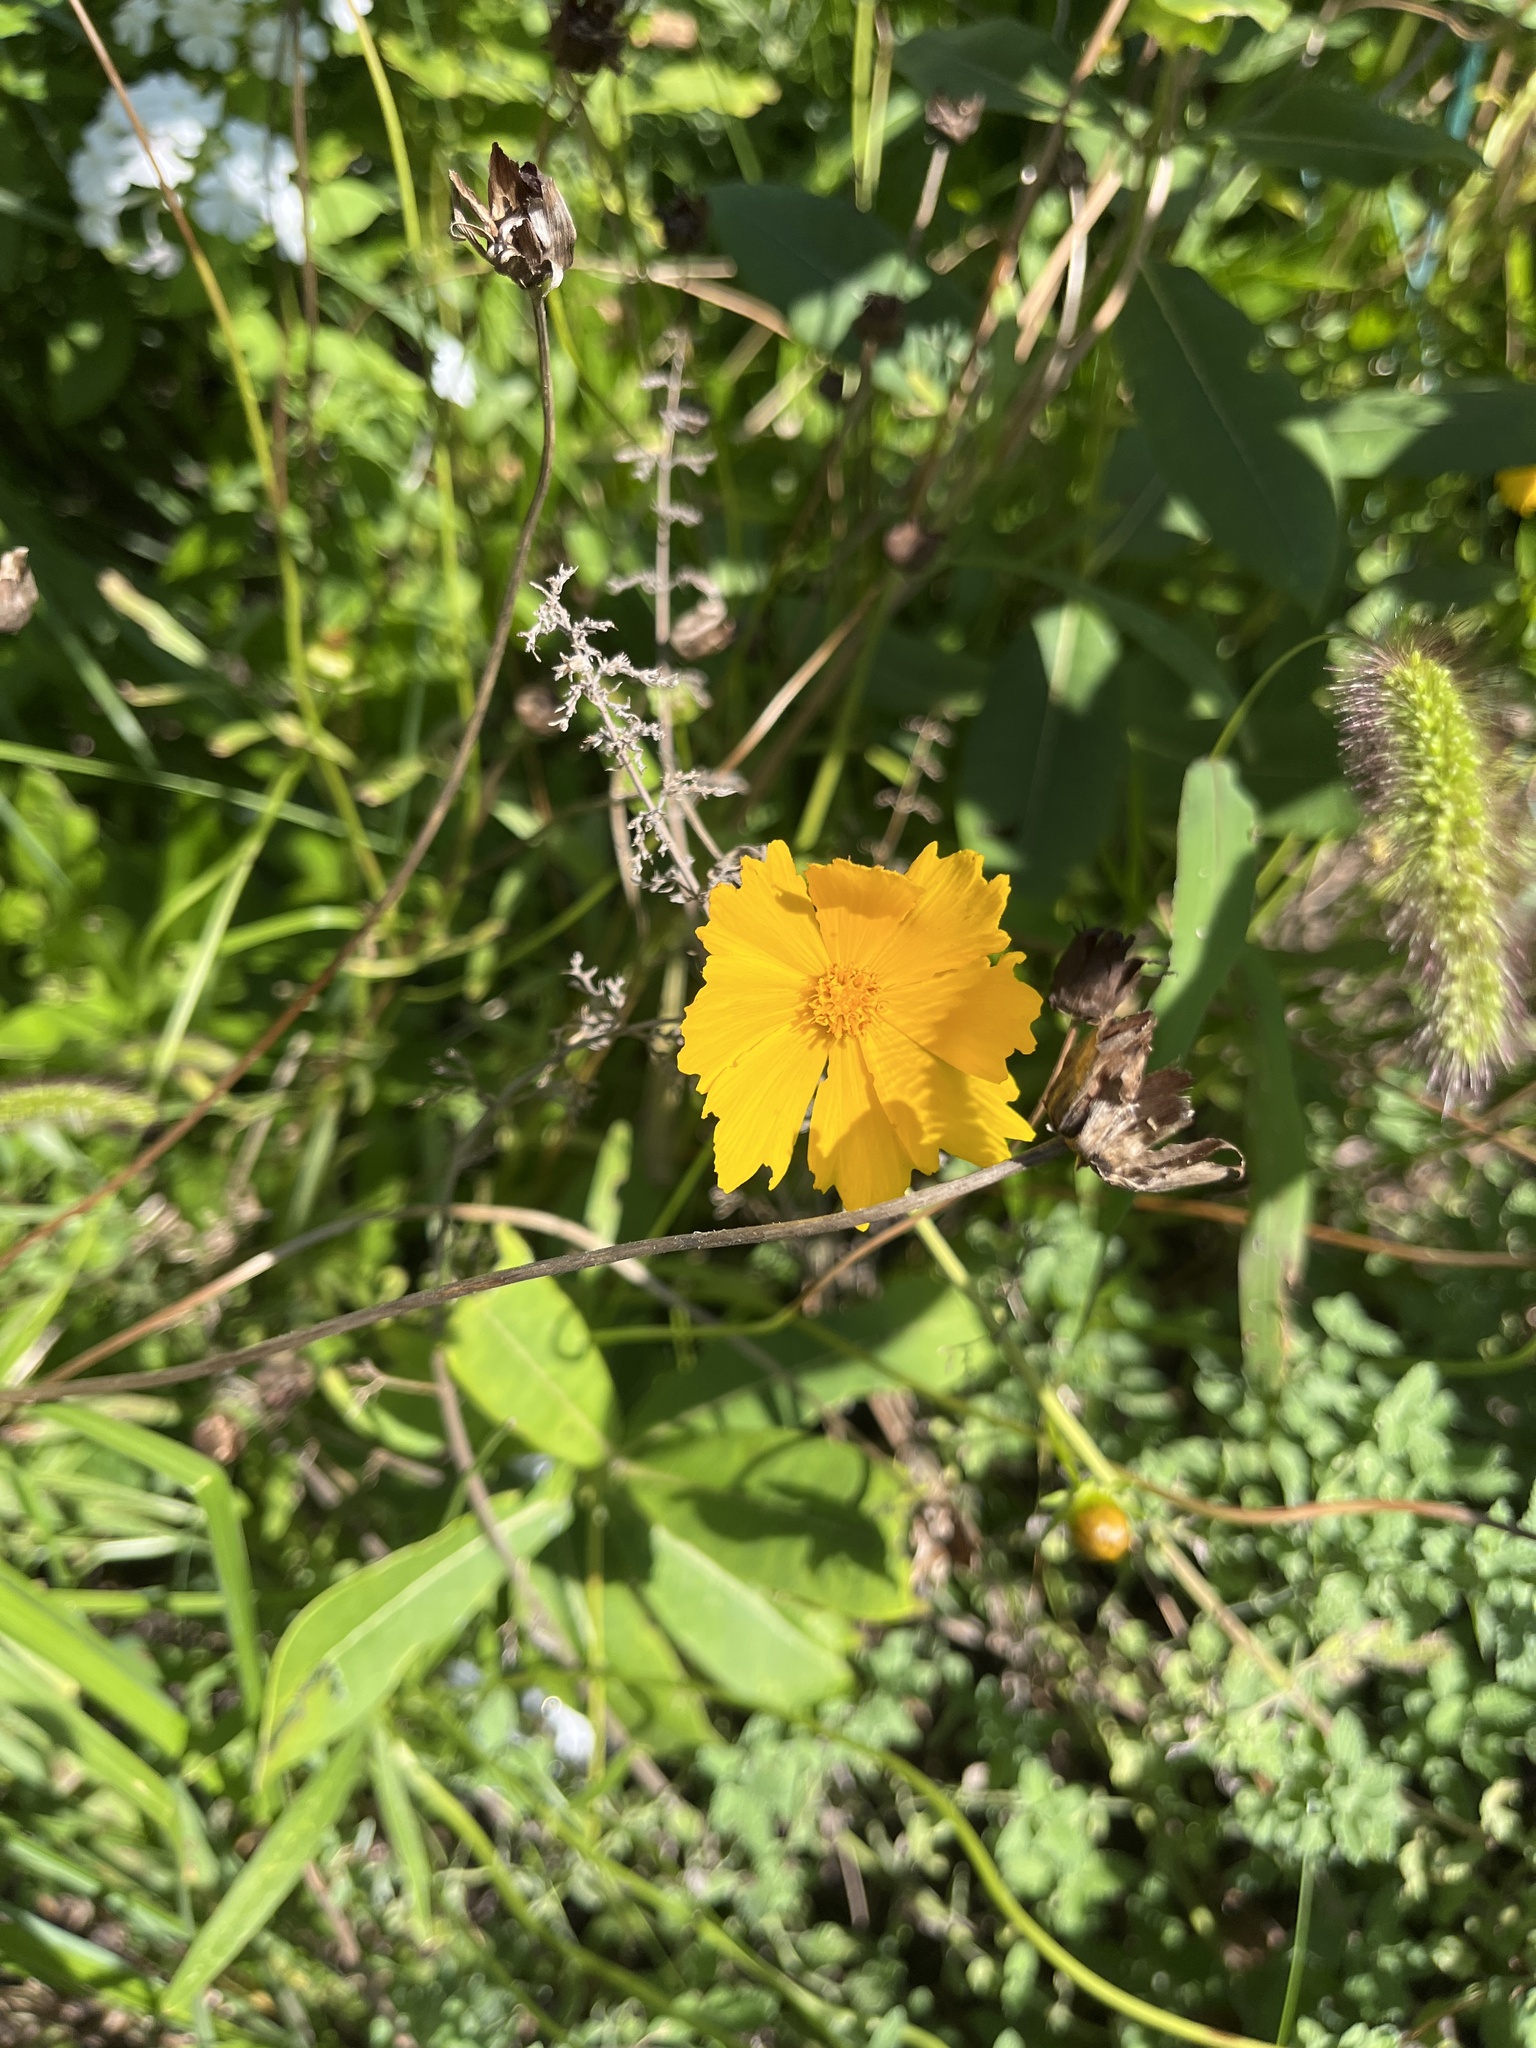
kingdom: Plantae
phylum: Tracheophyta
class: Magnoliopsida
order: Asterales
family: Asteraceae
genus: Coreopsis
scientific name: Coreopsis lanceolata
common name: Garden coreopsis
